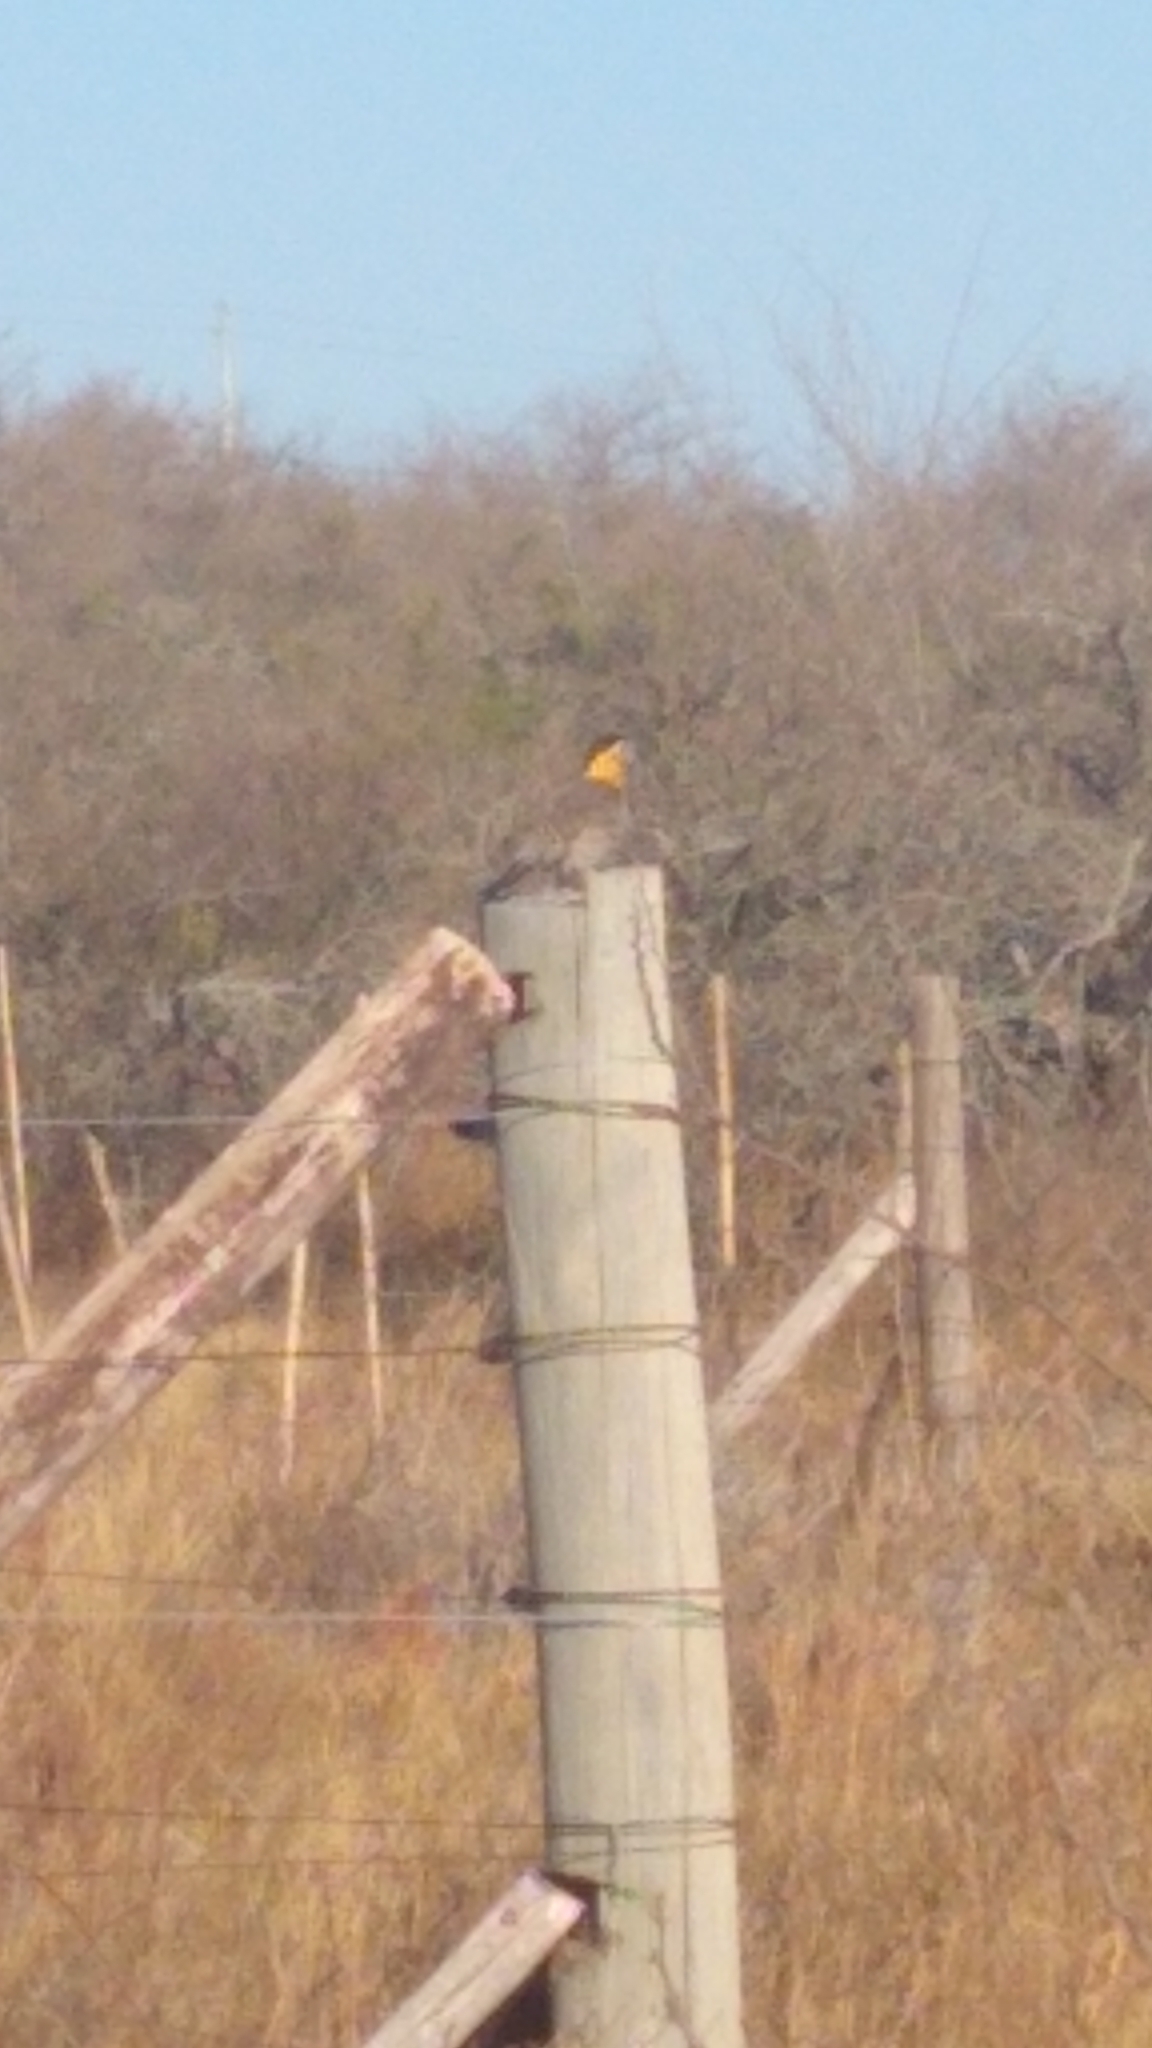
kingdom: Animalia
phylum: Chordata
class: Aves
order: Piciformes
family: Picidae
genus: Colaptes
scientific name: Colaptes campestris
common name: Campo flicker
